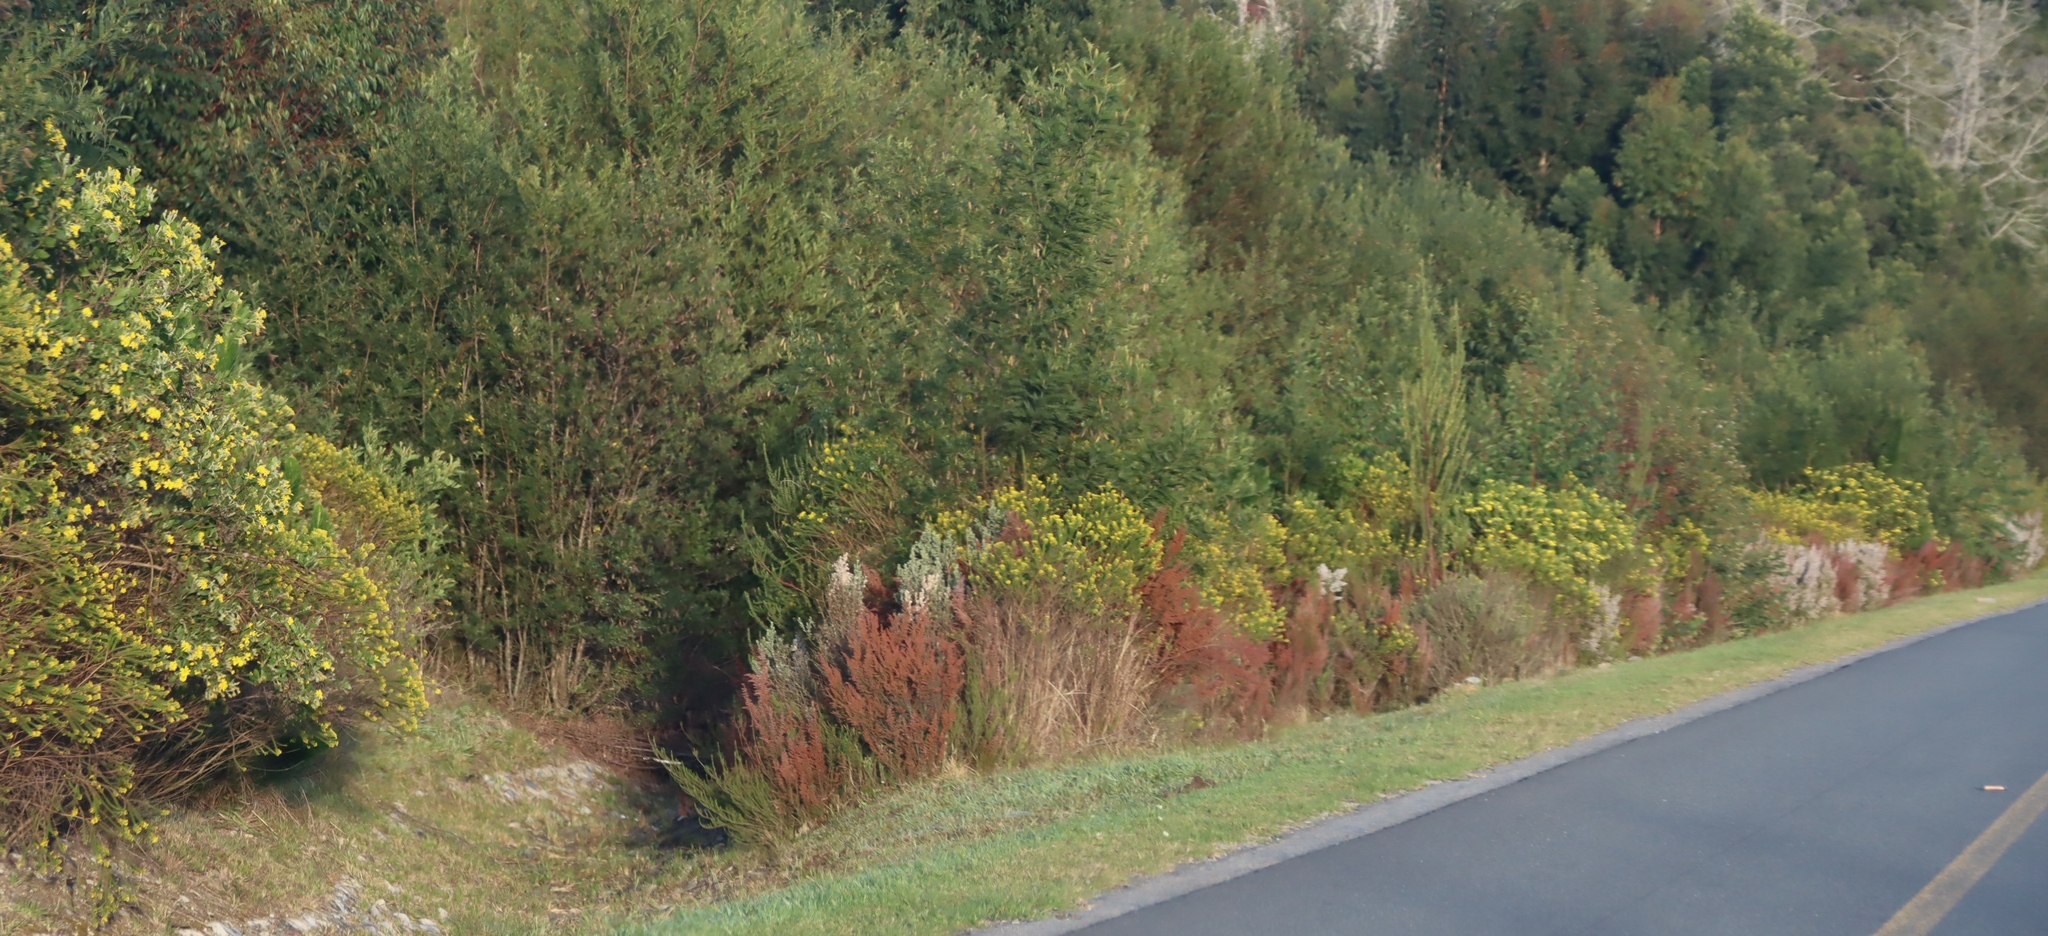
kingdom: Plantae
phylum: Tracheophyta
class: Magnoliopsida
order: Fabales
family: Fabaceae
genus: Acacia
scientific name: Acacia mearnsii
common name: Black wattle
